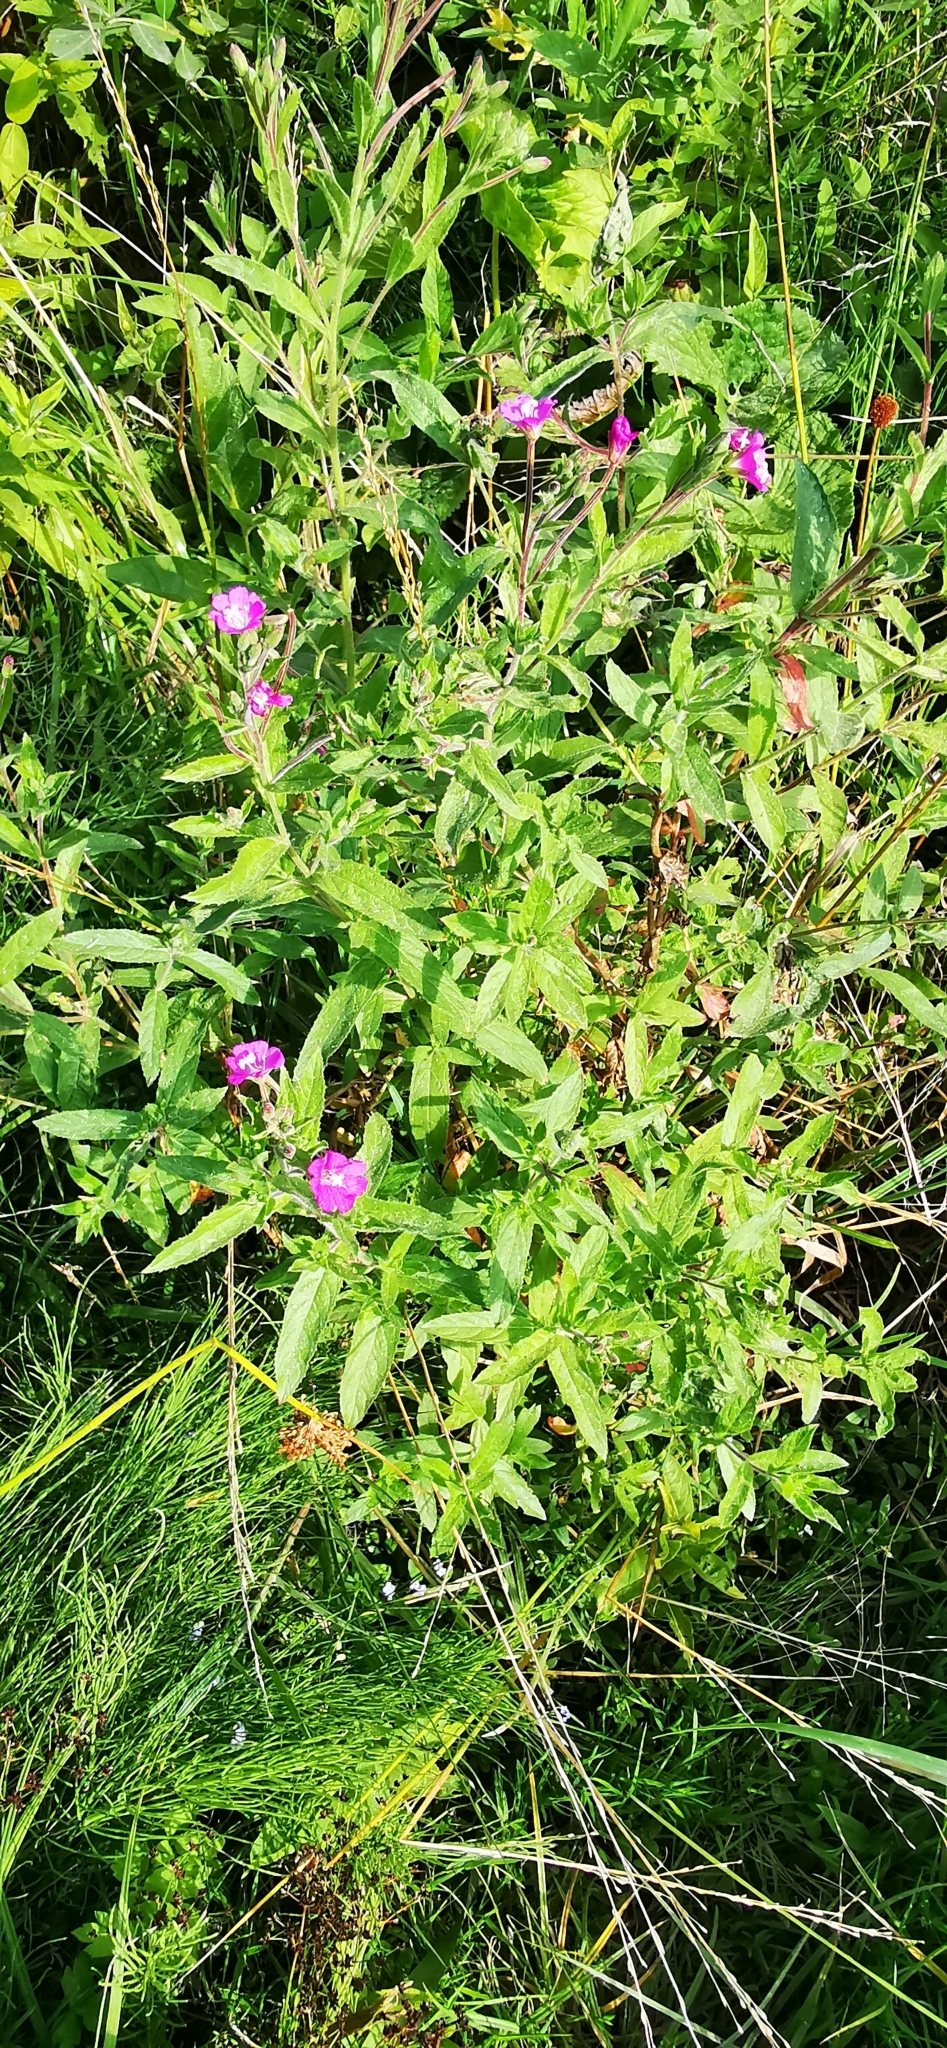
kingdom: Plantae
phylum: Tracheophyta
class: Magnoliopsida
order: Myrtales
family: Onagraceae
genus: Epilobium
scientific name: Epilobium hirsutum
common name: Great willowherb
